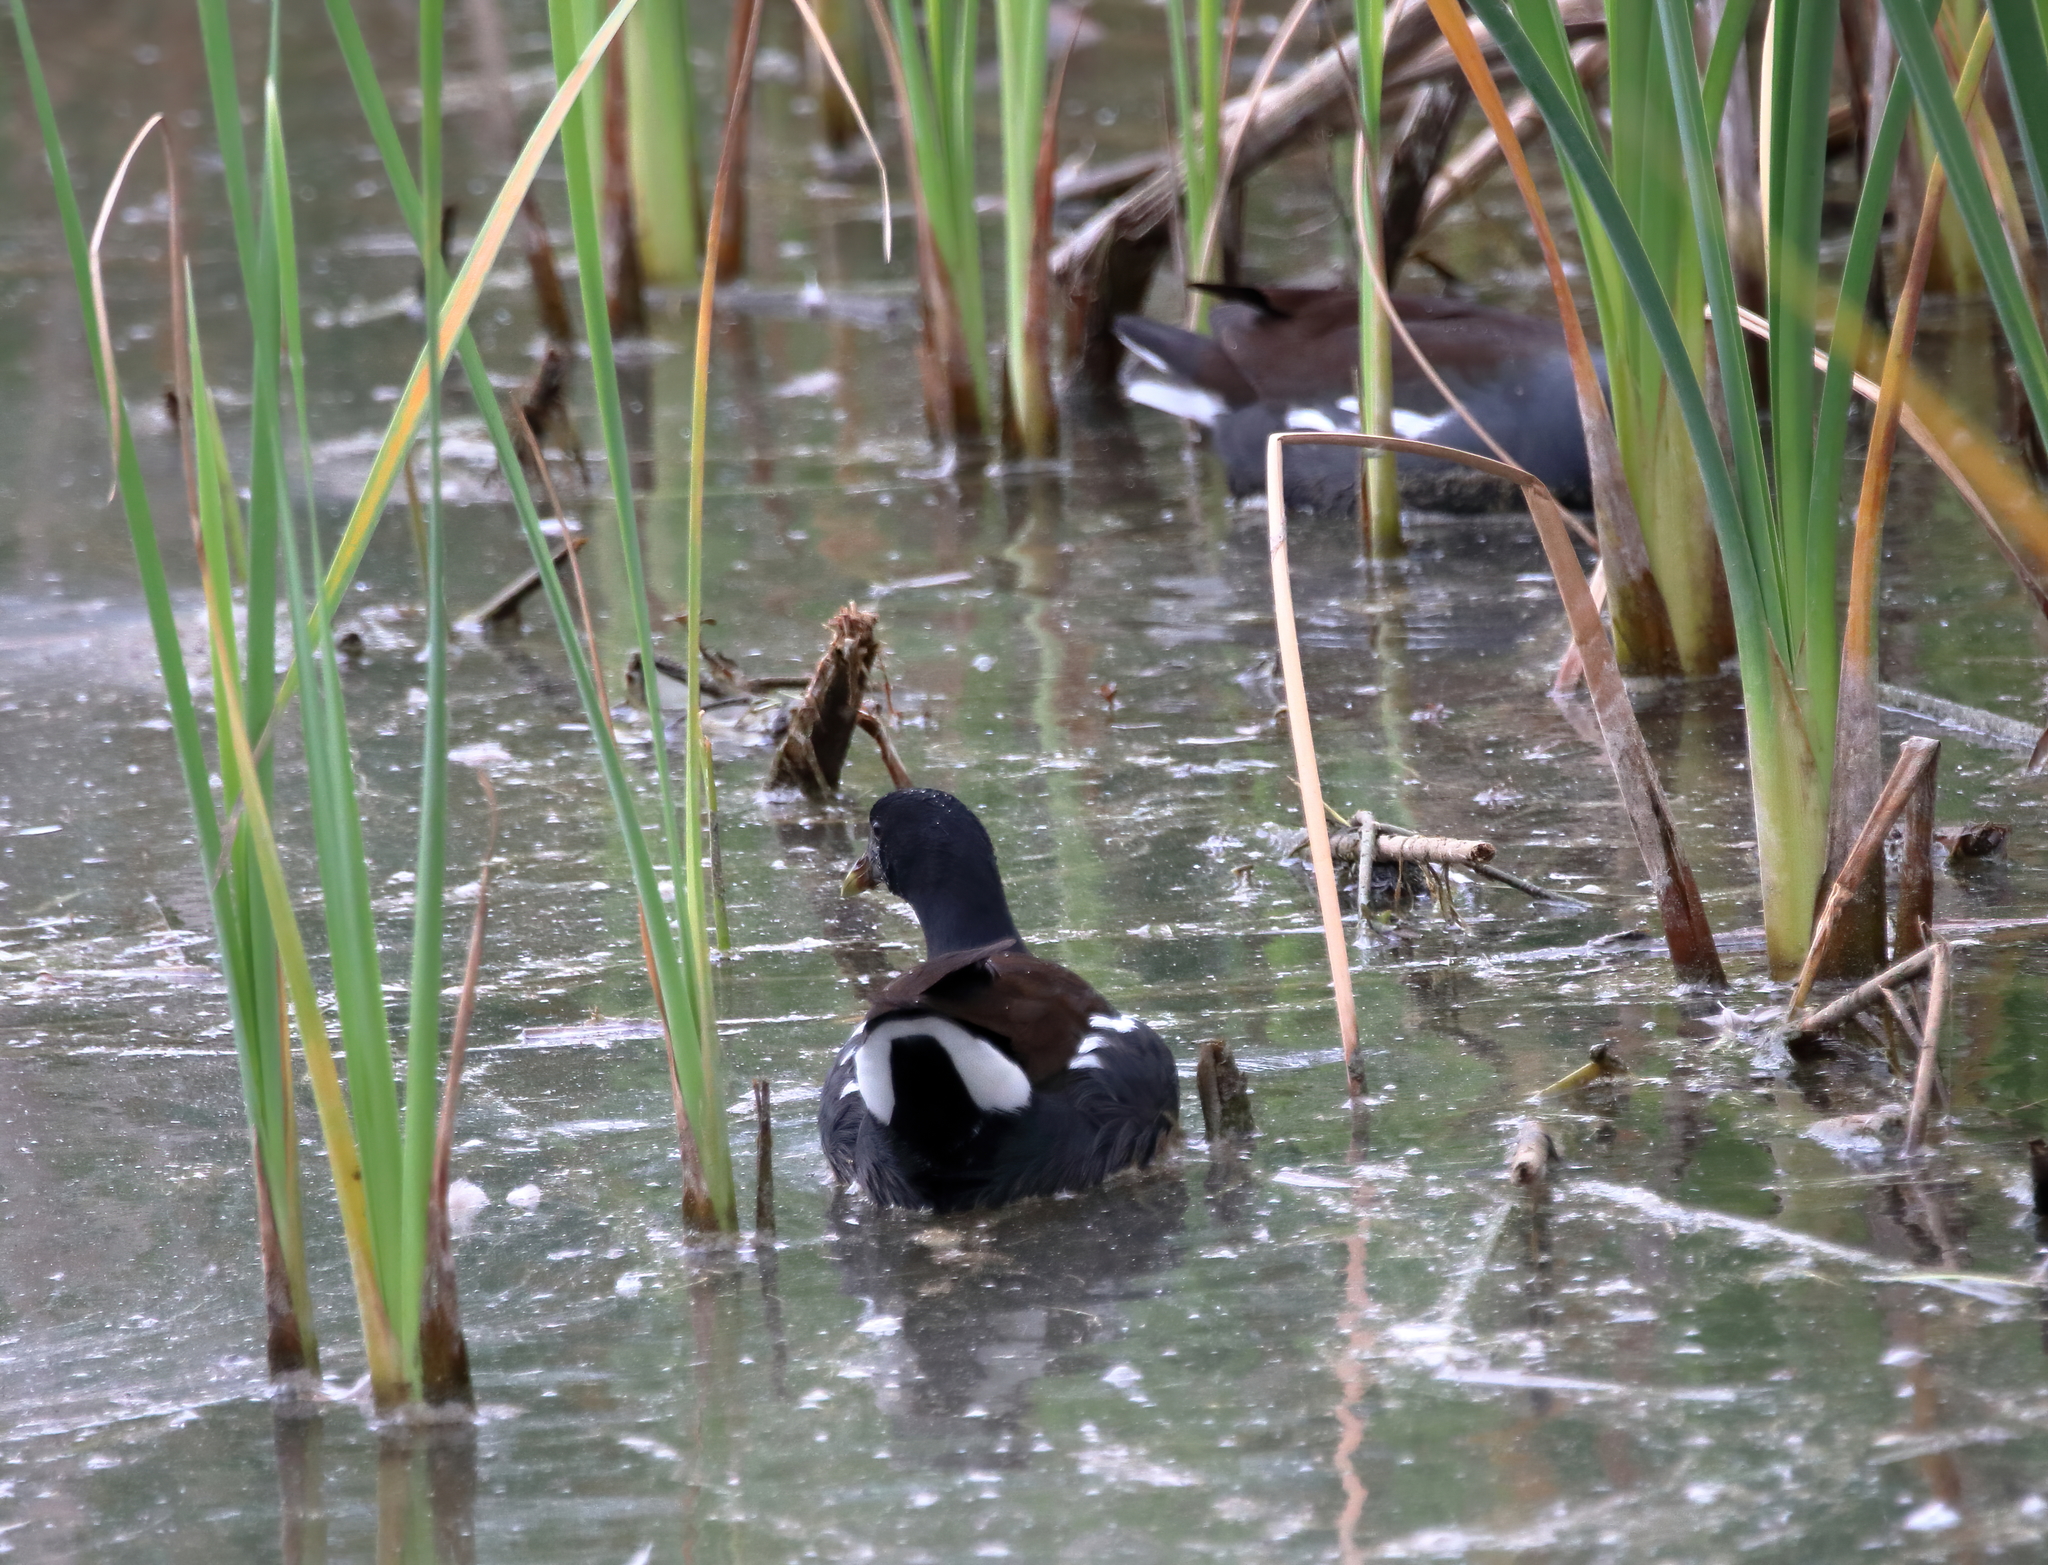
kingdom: Animalia
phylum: Chordata
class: Aves
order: Gruiformes
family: Rallidae
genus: Gallinula
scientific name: Gallinula chloropus
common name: Common moorhen
